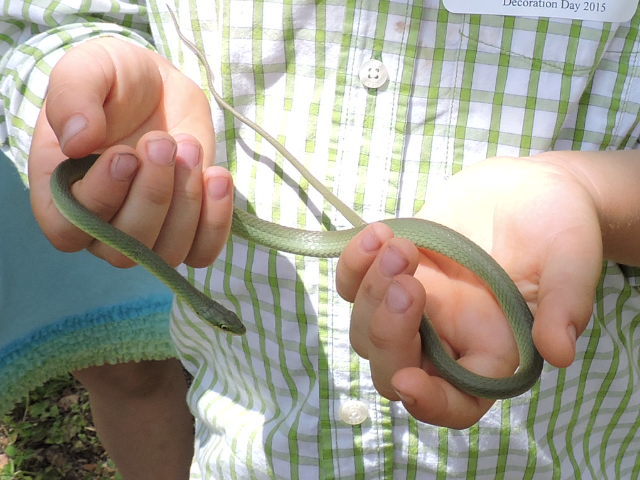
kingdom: Animalia
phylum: Chordata
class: Squamata
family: Colubridae
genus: Opheodrys
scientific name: Opheodrys aestivus
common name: Rough greensnake
